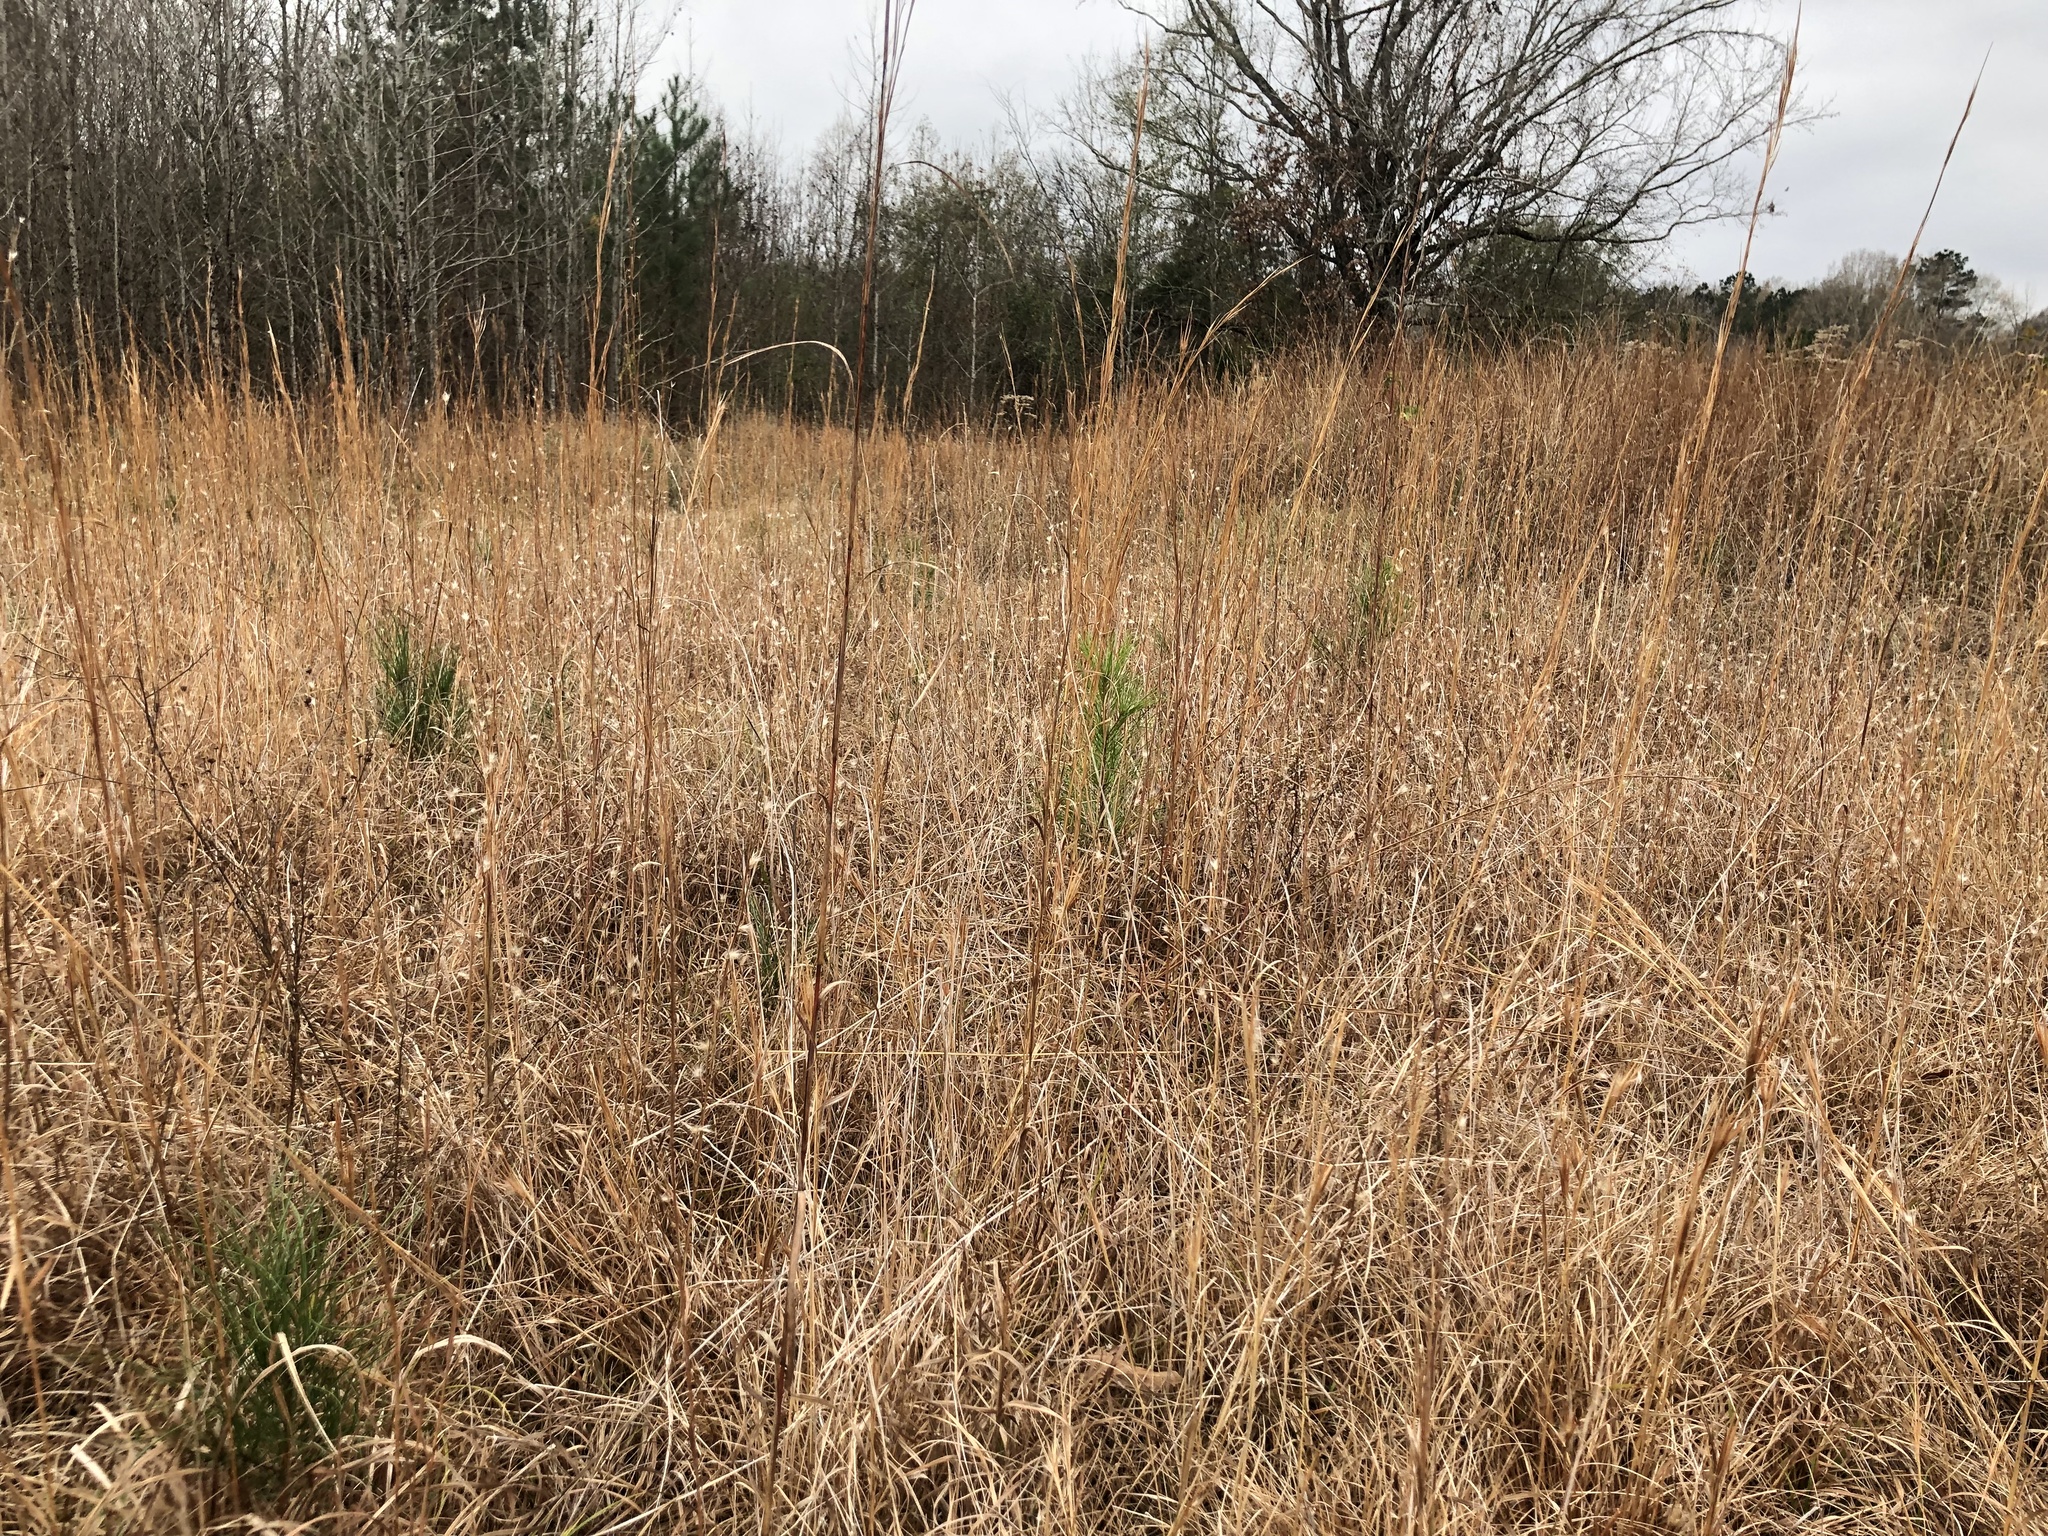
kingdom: Plantae
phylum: Tracheophyta
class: Liliopsida
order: Poales
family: Poaceae
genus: Andropogon
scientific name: Andropogon ternarius
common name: Split bluestem
